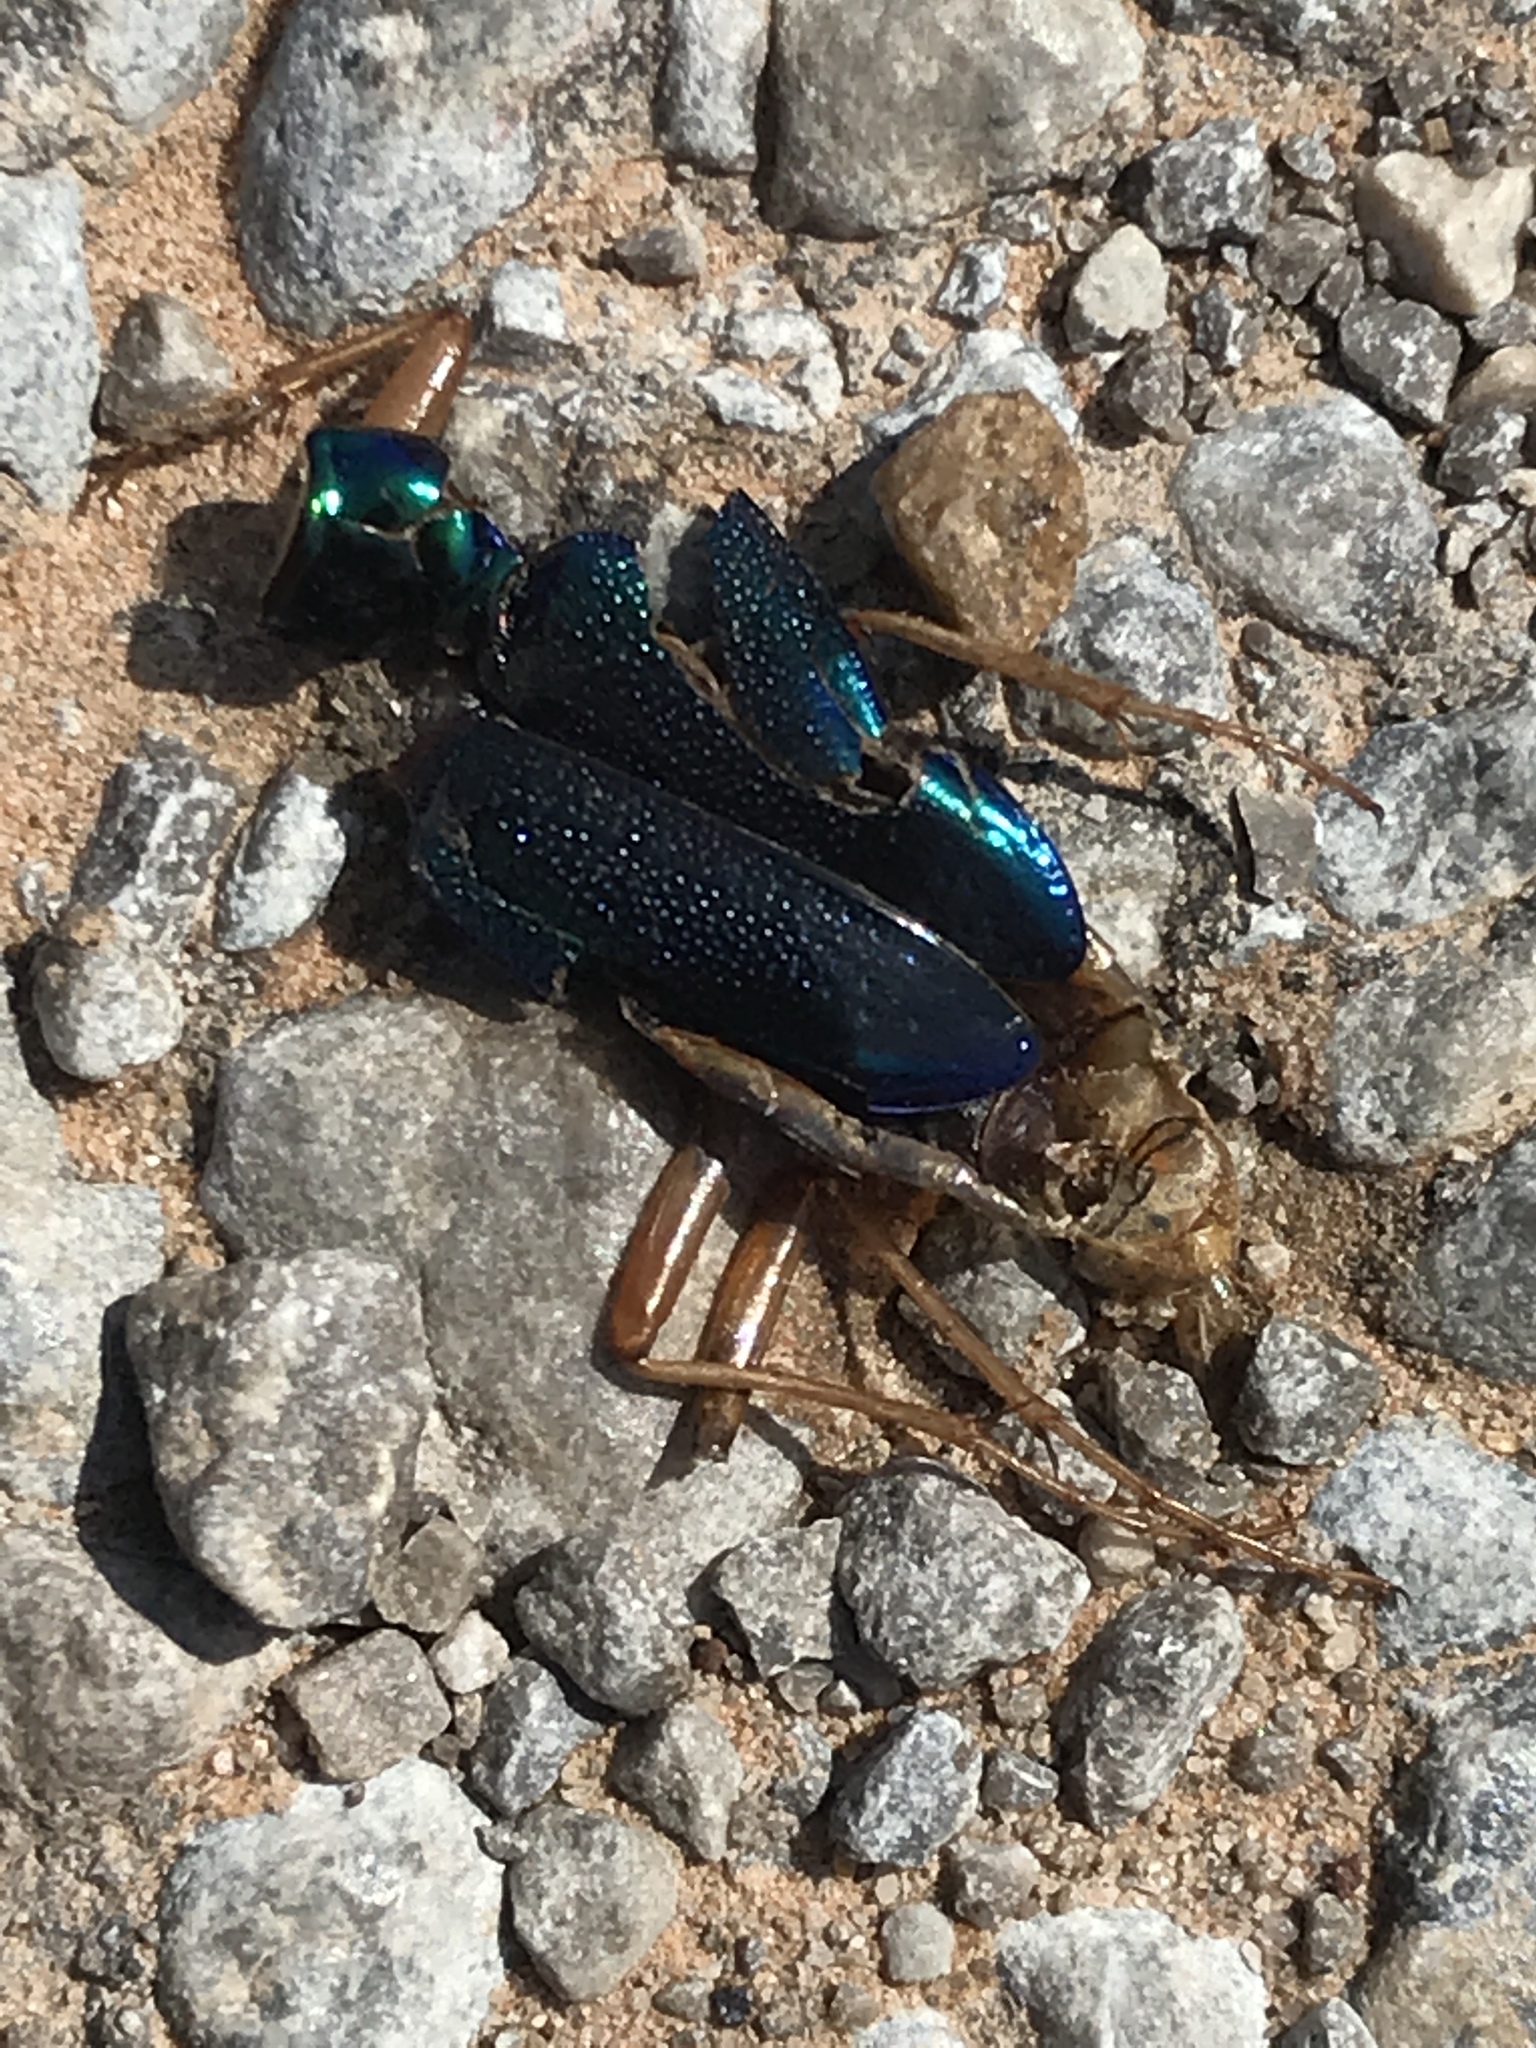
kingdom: Animalia
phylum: Arthropoda
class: Insecta
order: Coleoptera
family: Carabidae
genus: Tetracha
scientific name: Tetracha virginica
